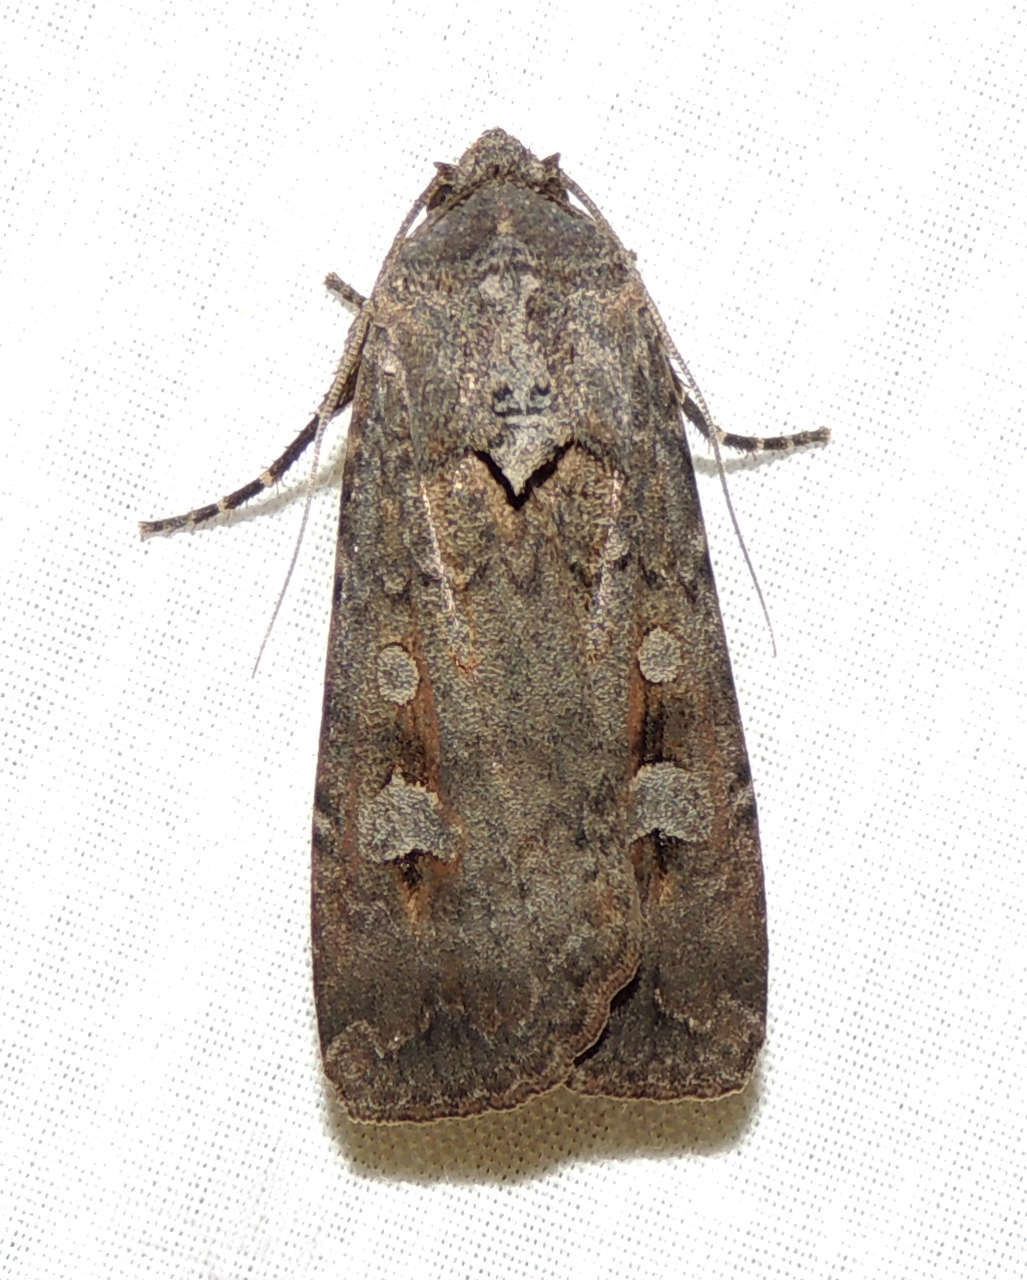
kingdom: Animalia
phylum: Arthropoda
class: Insecta
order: Lepidoptera
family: Noctuidae
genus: Agrotis
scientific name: Agrotis infusa
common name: Bogong moth
